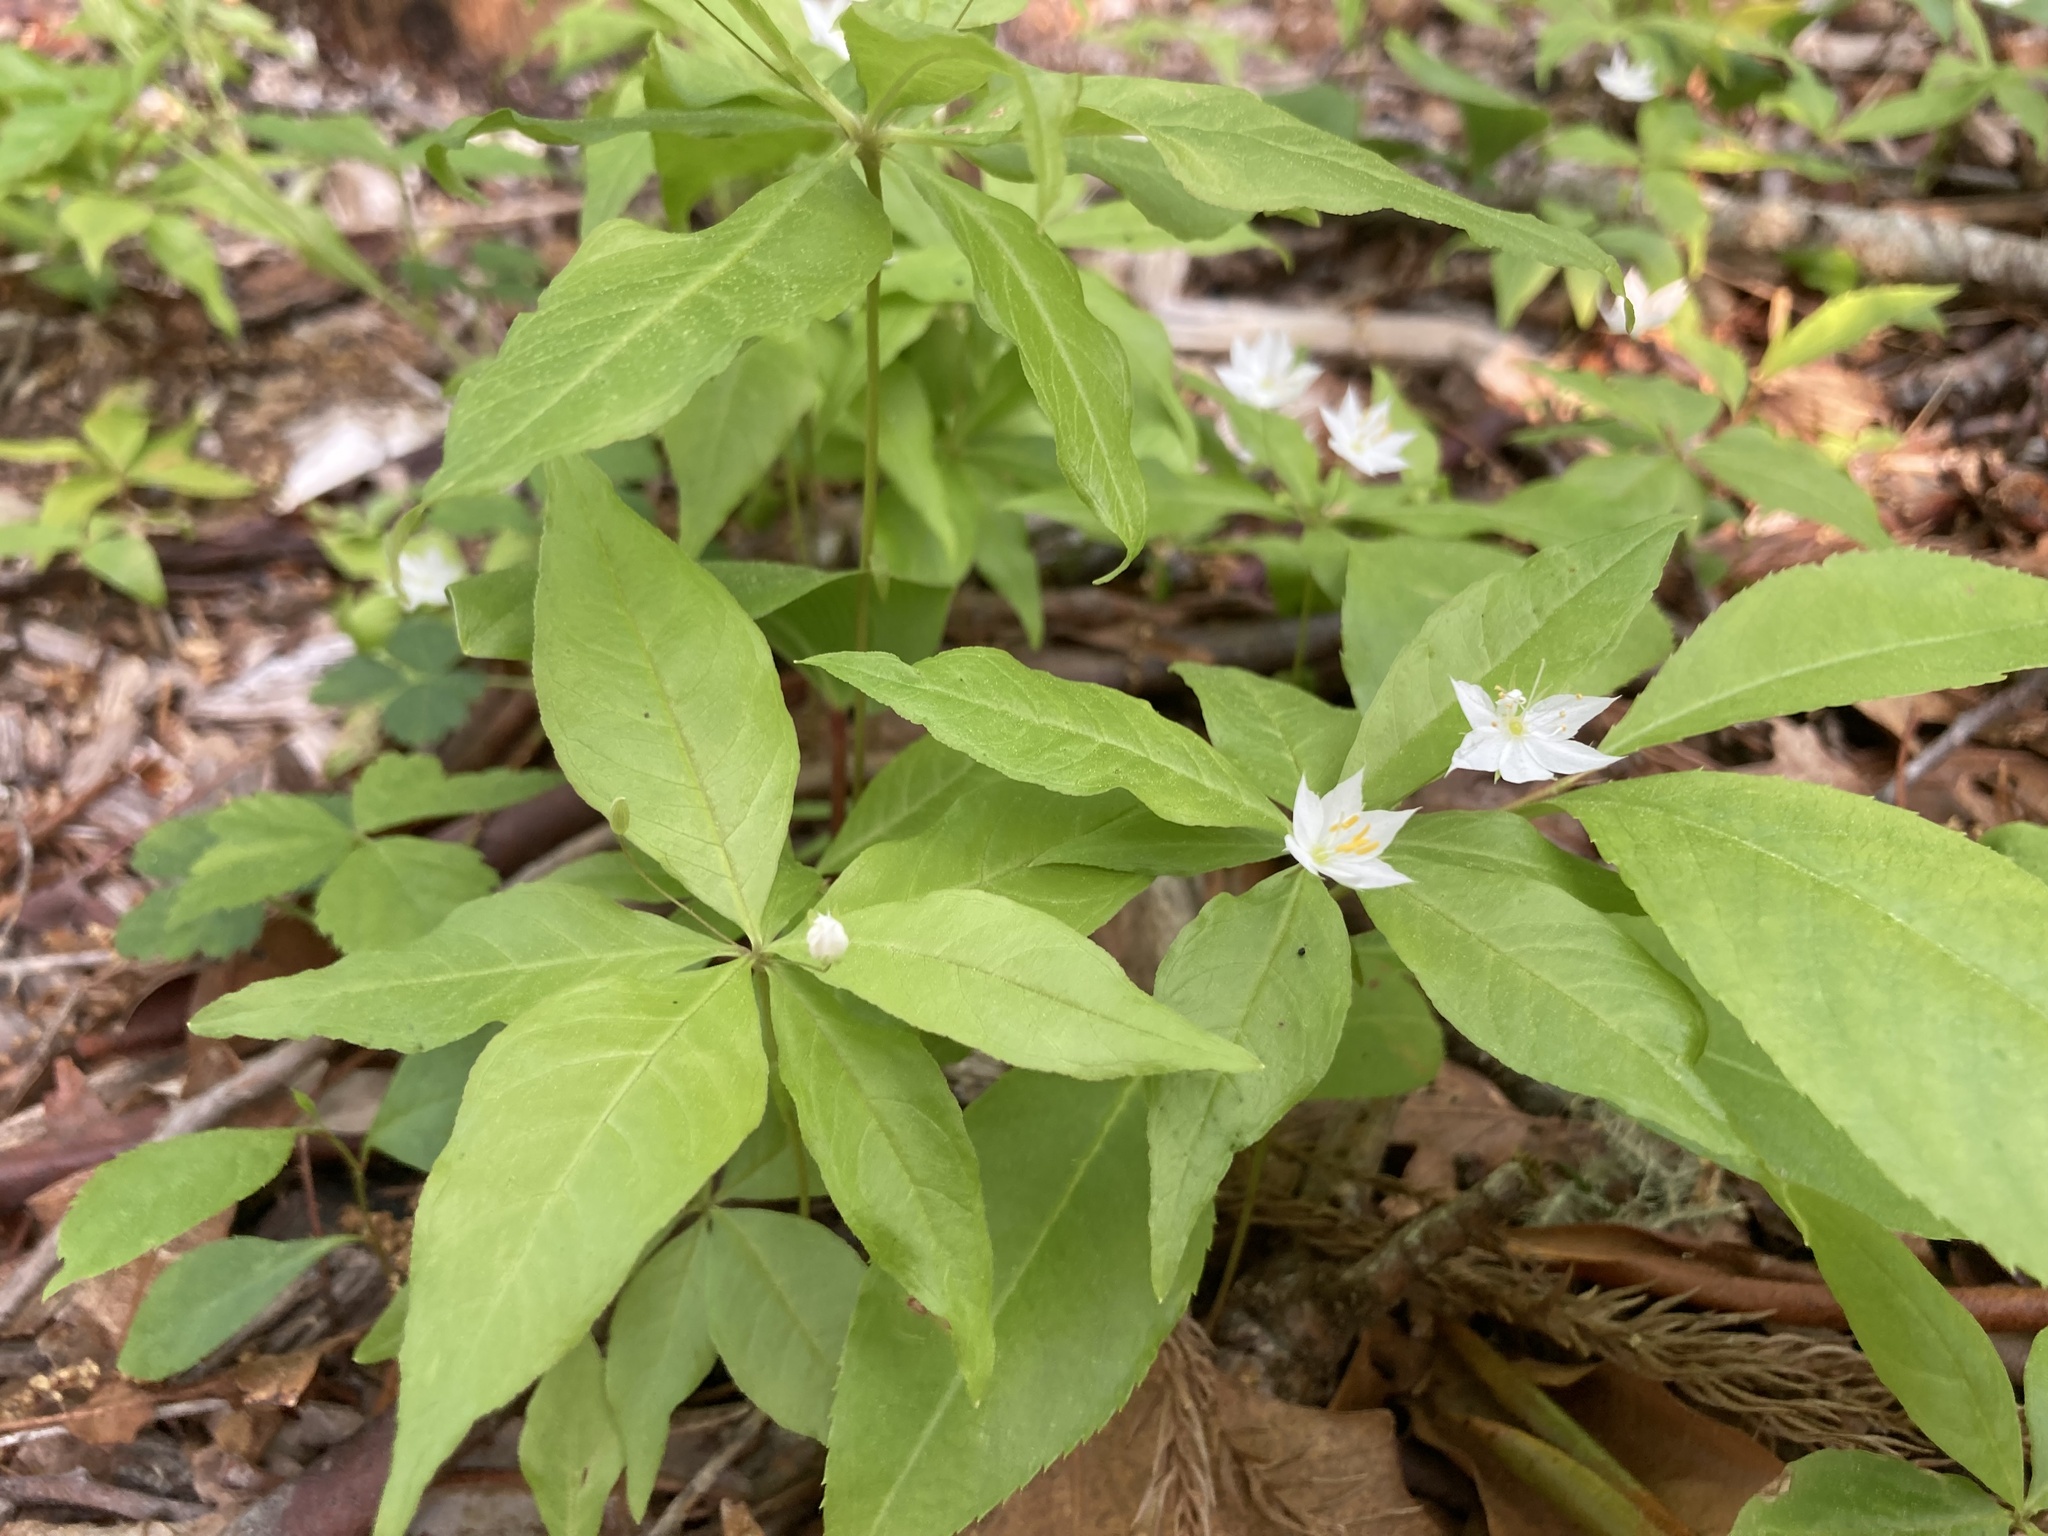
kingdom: Plantae
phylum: Tracheophyta
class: Magnoliopsida
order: Ericales
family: Primulaceae
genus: Lysimachia
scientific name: Lysimachia borealis
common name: American starflower
